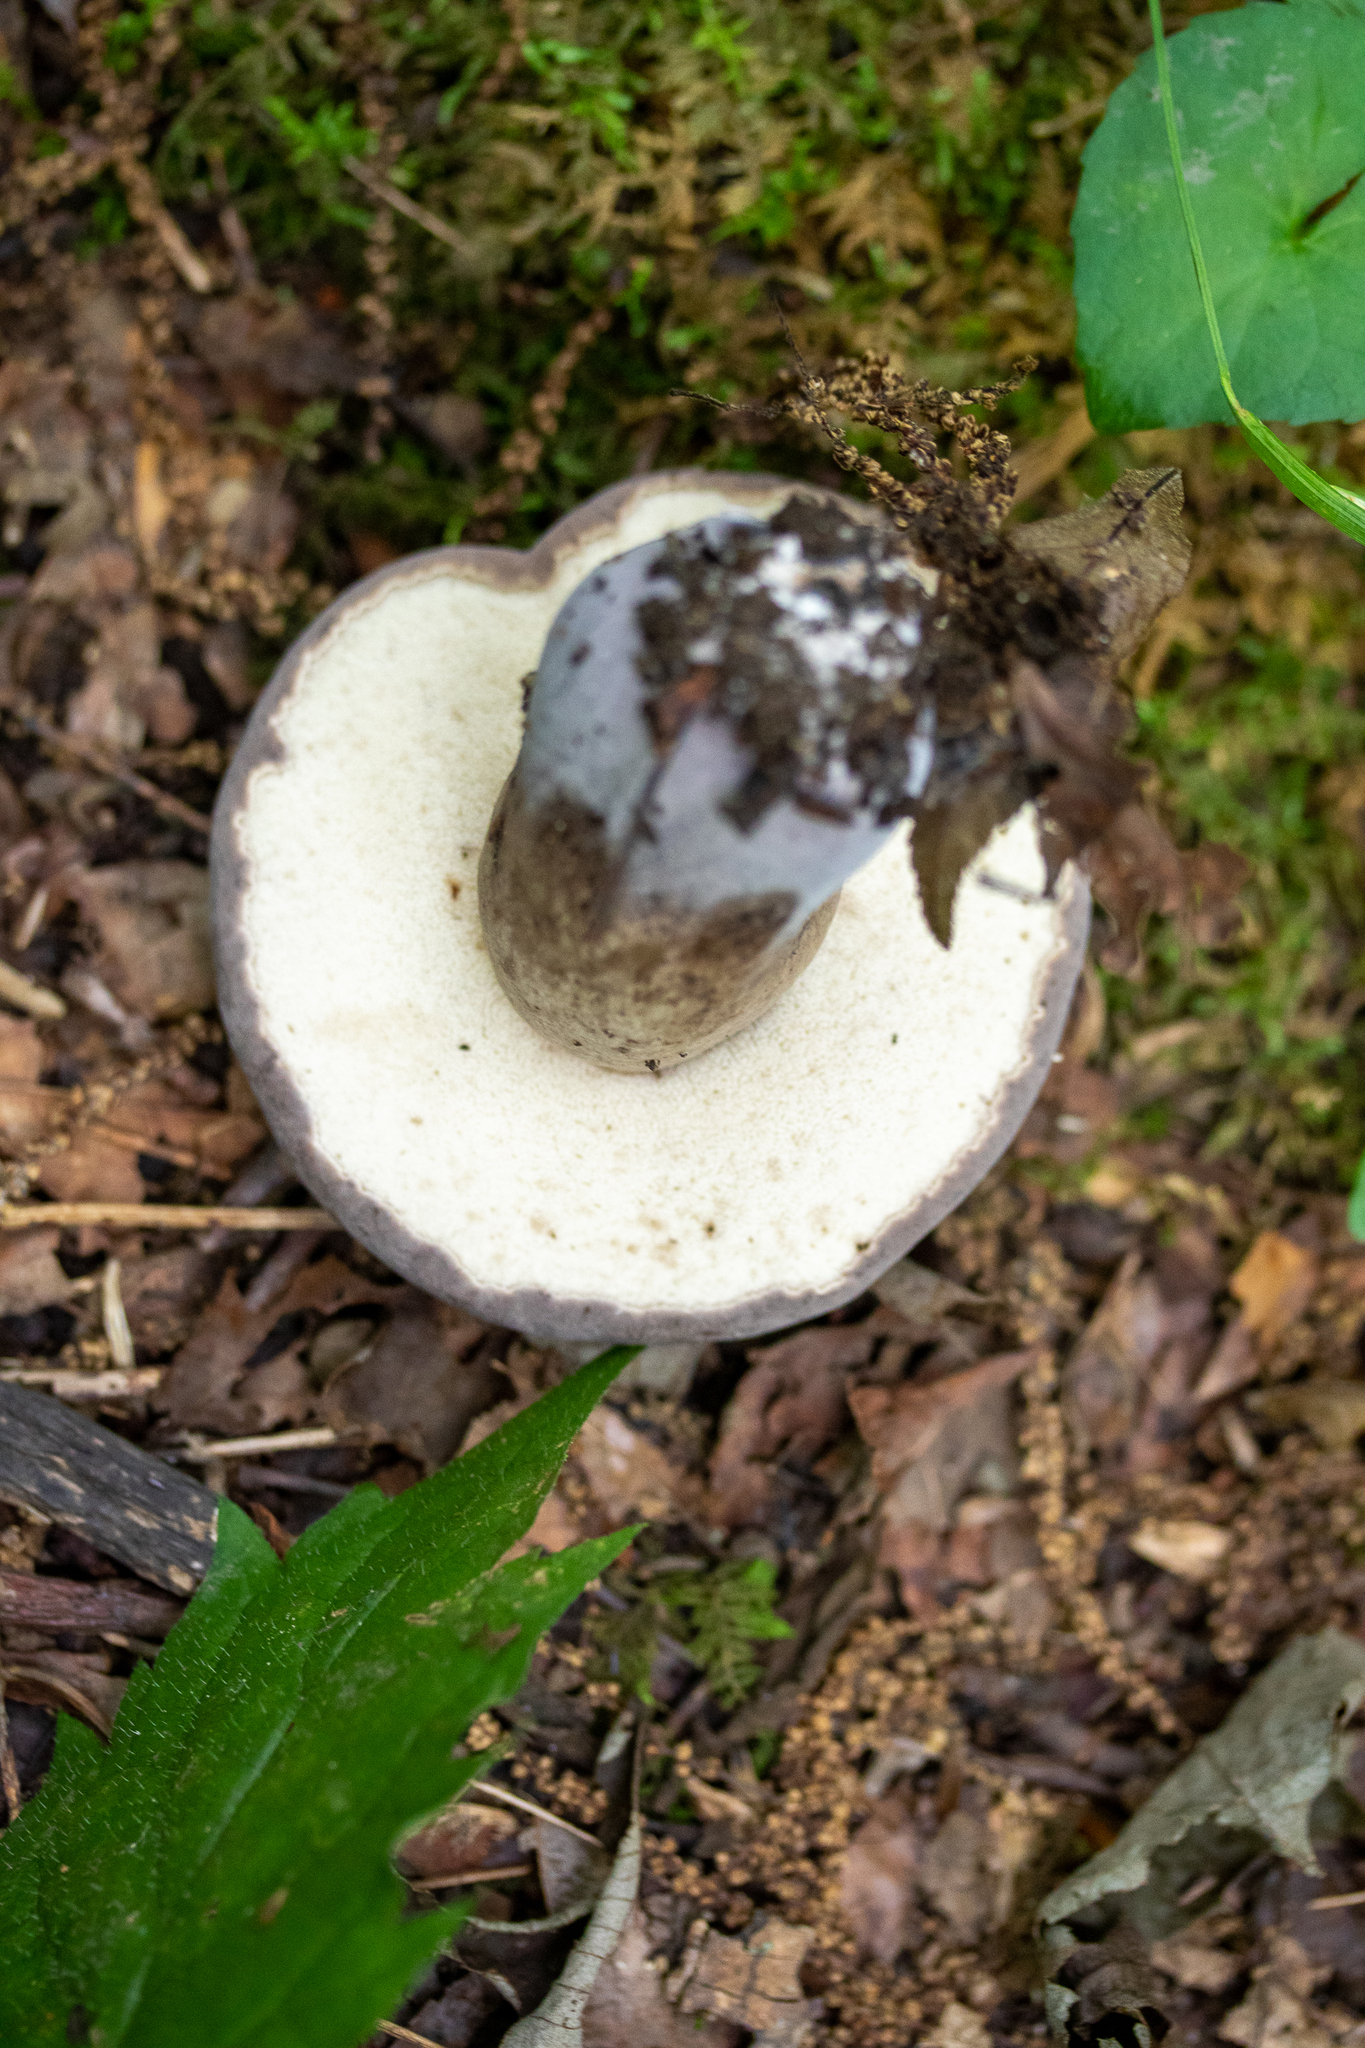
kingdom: Fungi
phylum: Basidiomycota
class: Agaricomycetes
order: Boletales
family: Boletaceae
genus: Tylopilus
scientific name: Tylopilus alboater
